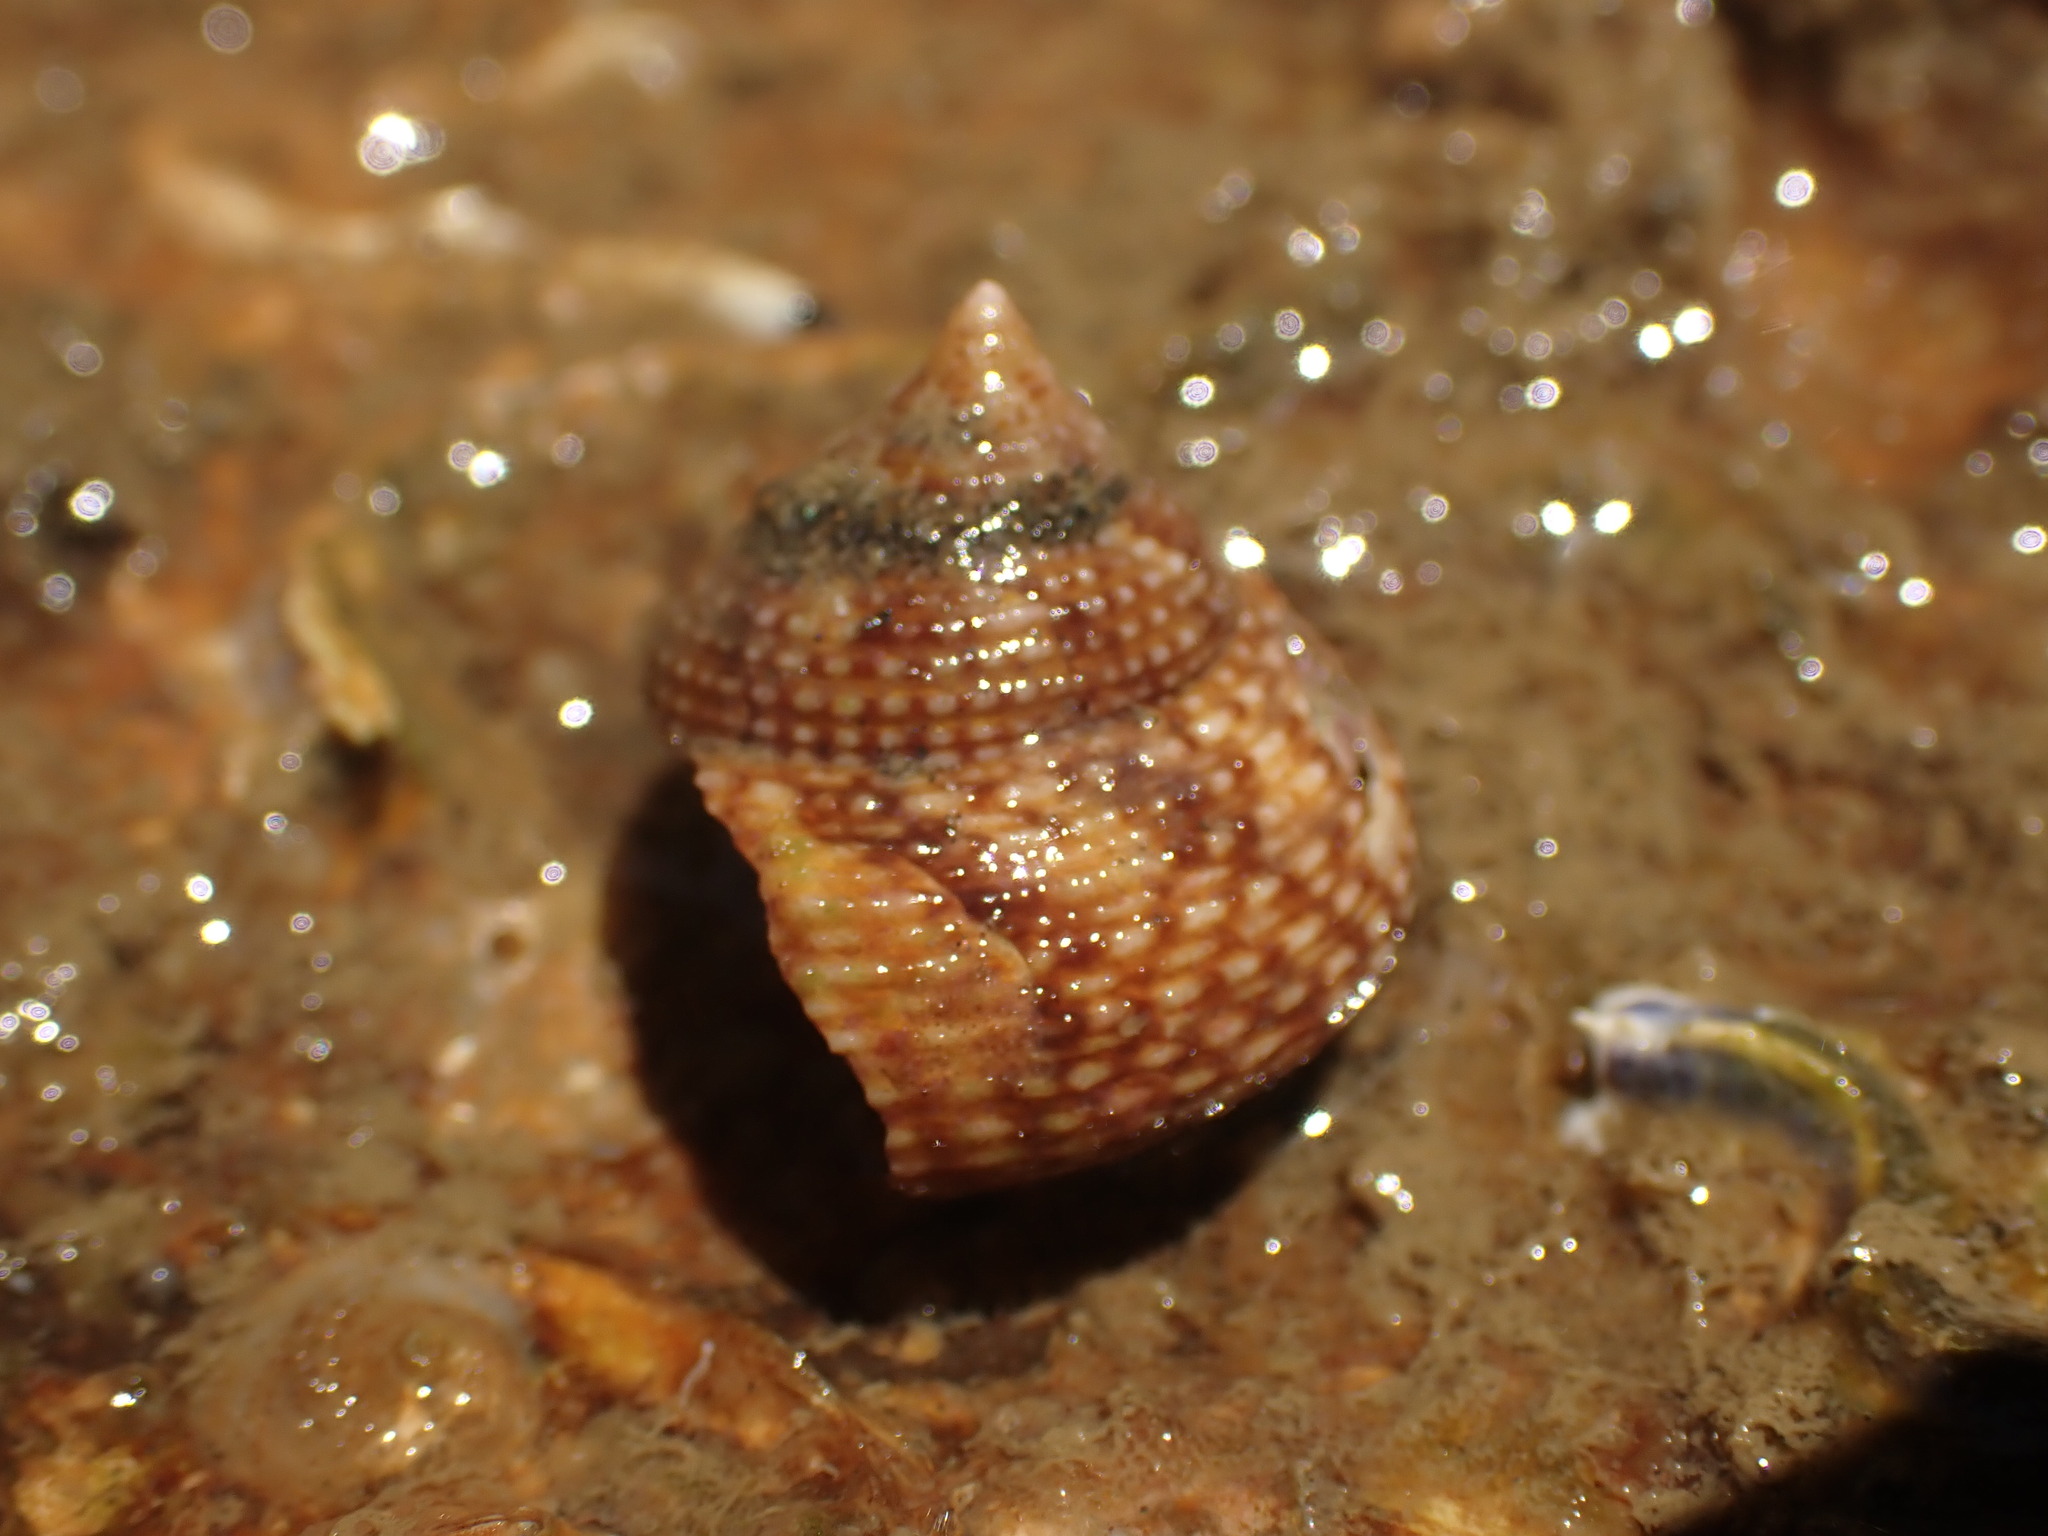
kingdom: Animalia
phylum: Mollusca
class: Gastropoda
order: Trochida
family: Calliostomatidae
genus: Maurea
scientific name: Maurea punctulata
